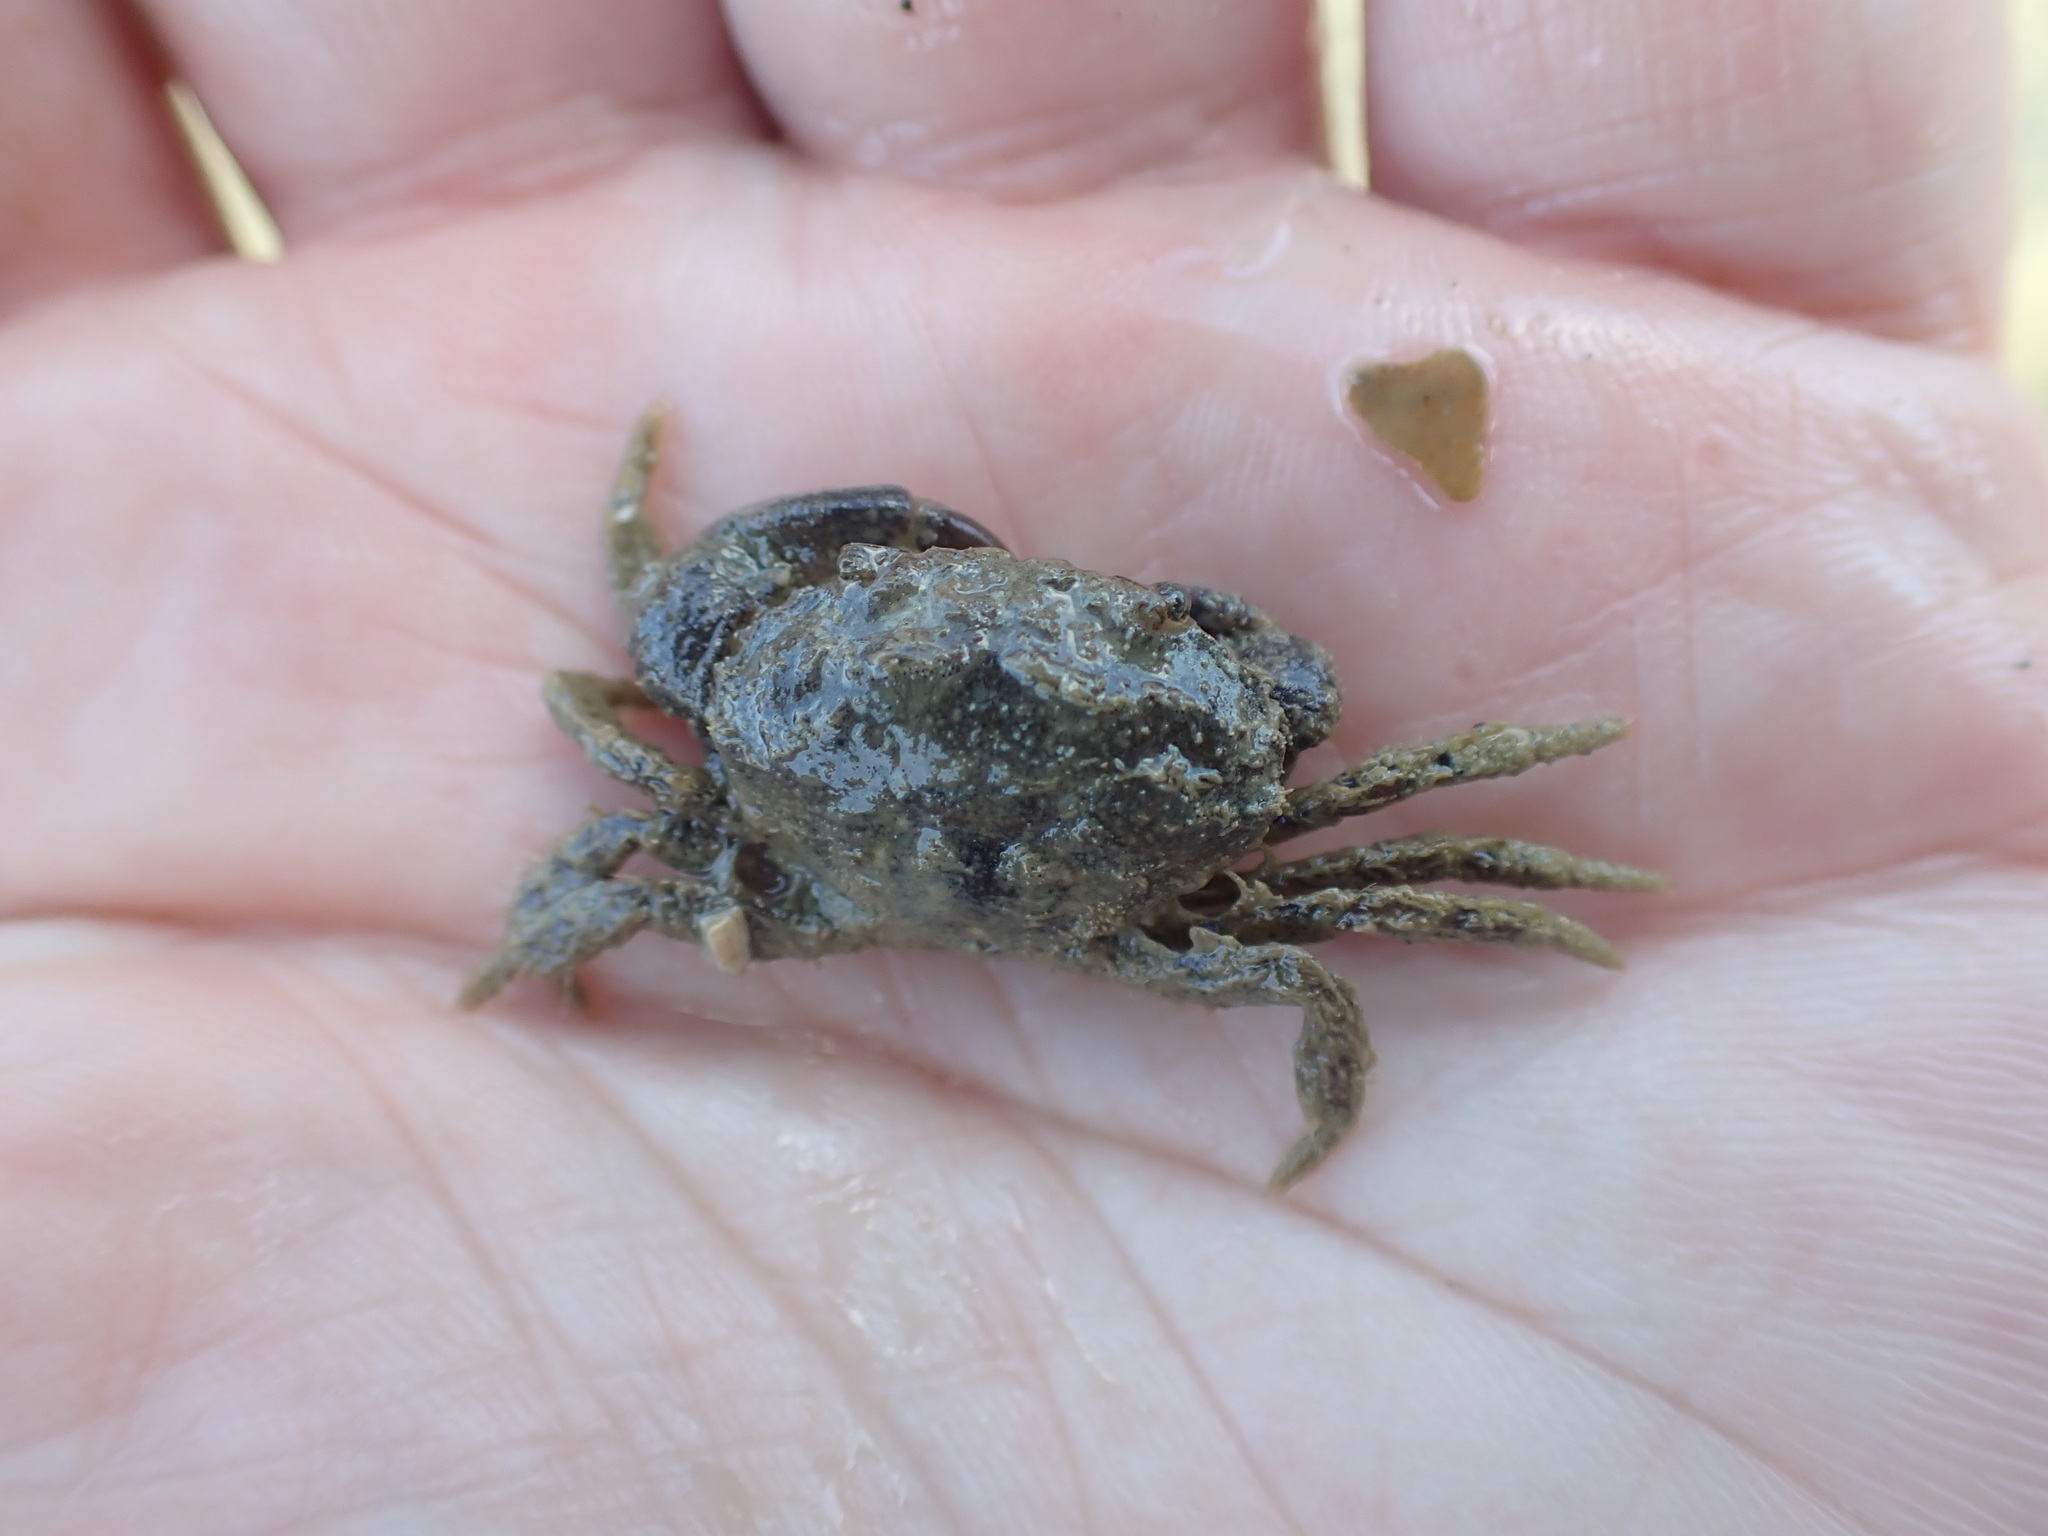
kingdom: Animalia
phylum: Arthropoda
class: Malacostraca
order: Decapoda
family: Pilumnidae
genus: Pilumnopeus
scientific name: Pilumnopeus serratifrons
